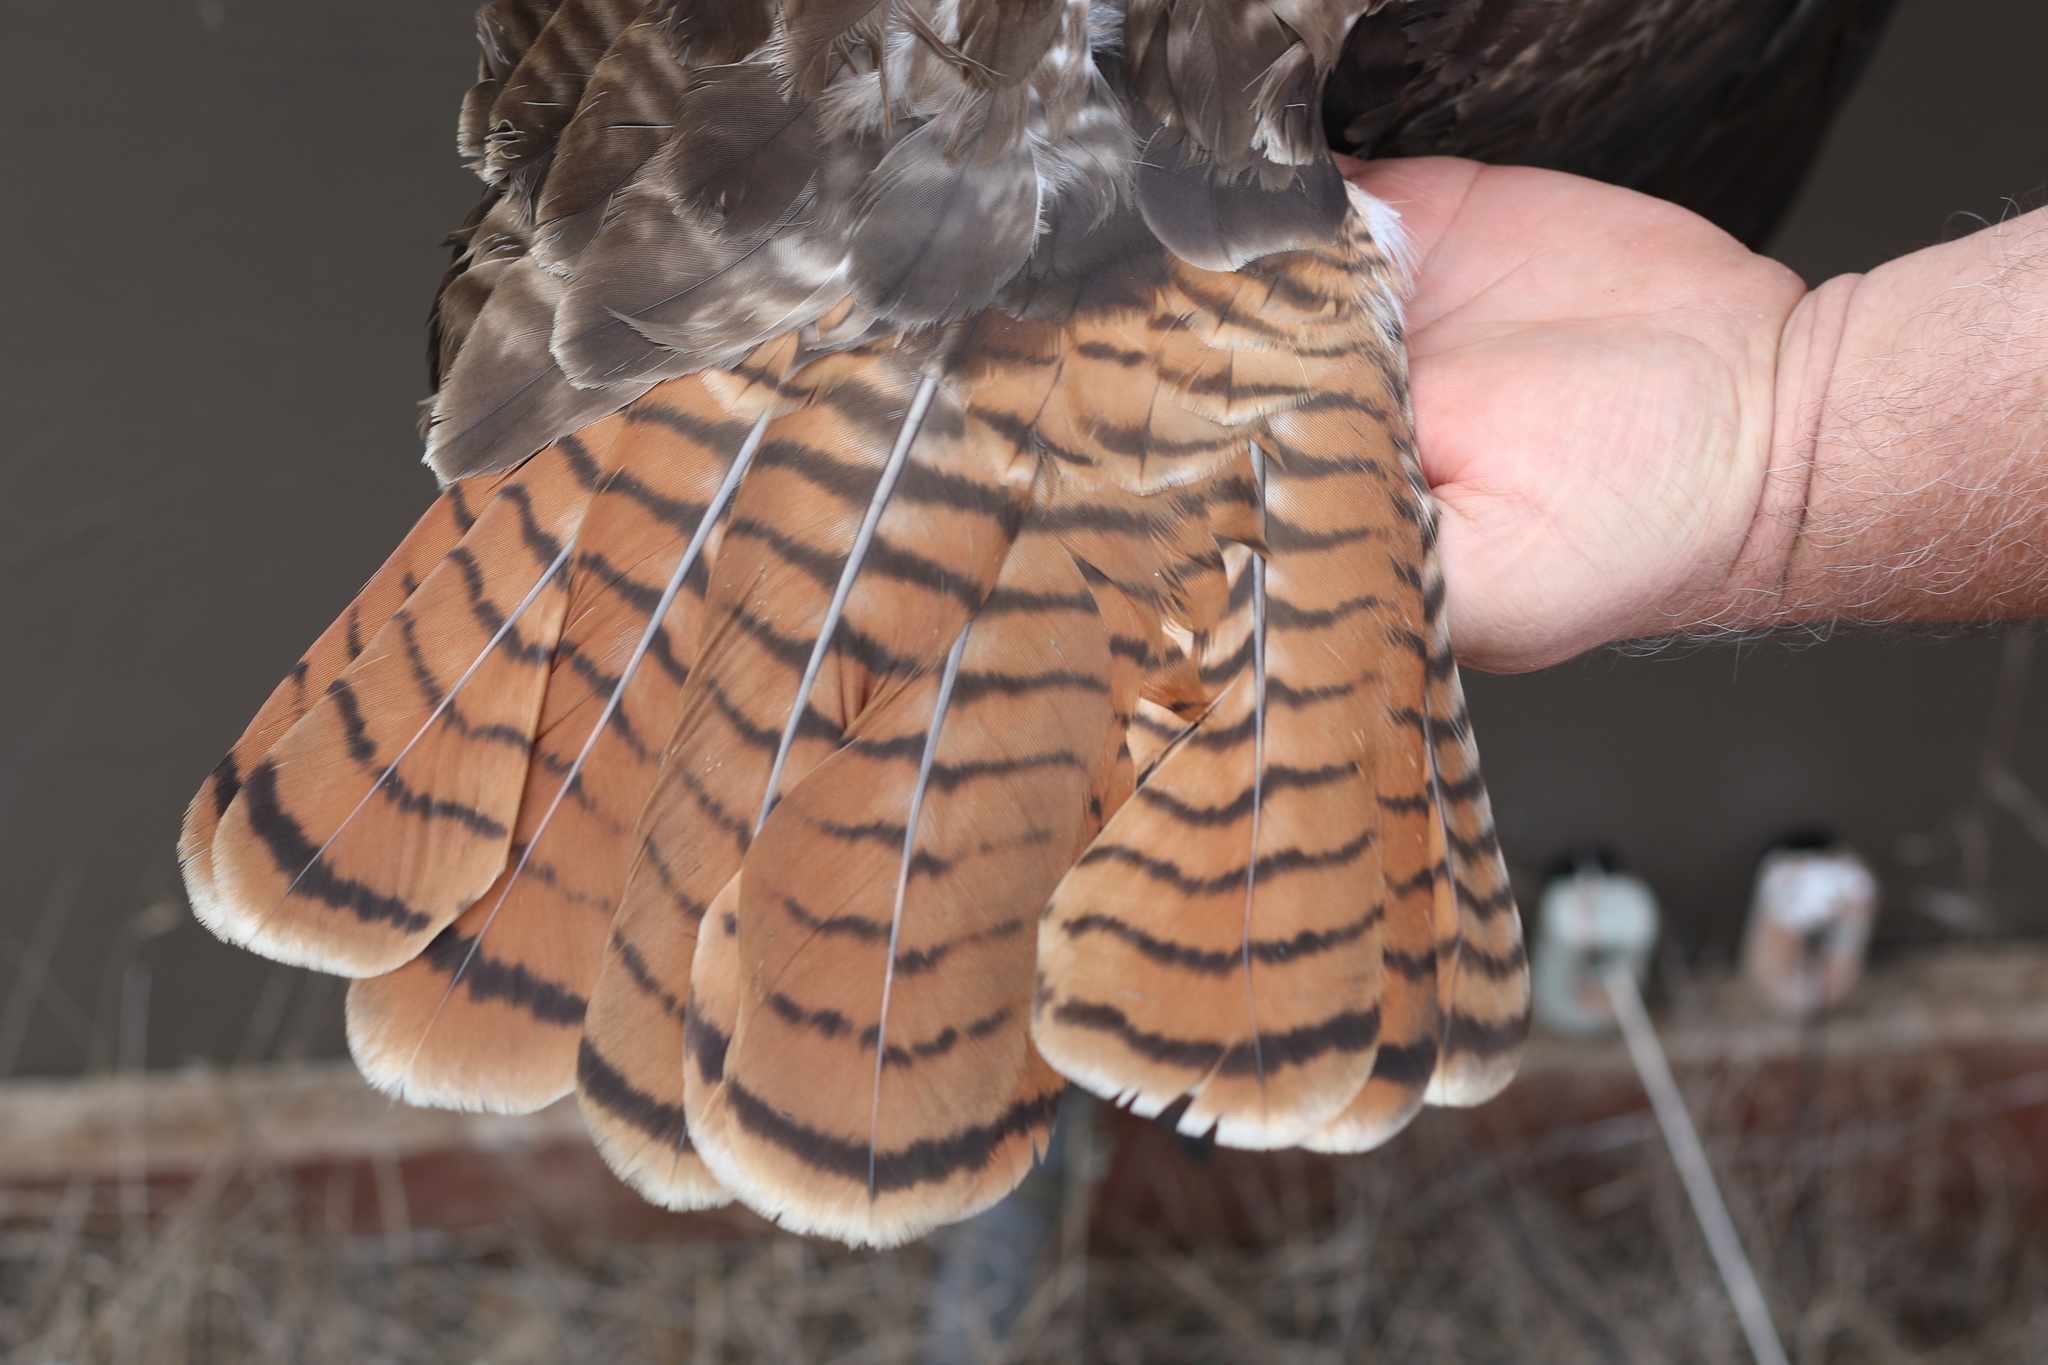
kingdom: Animalia
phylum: Chordata
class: Aves
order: Accipitriformes
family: Accipitridae
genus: Buteo
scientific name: Buteo jamaicensis
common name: Red-tailed hawk
